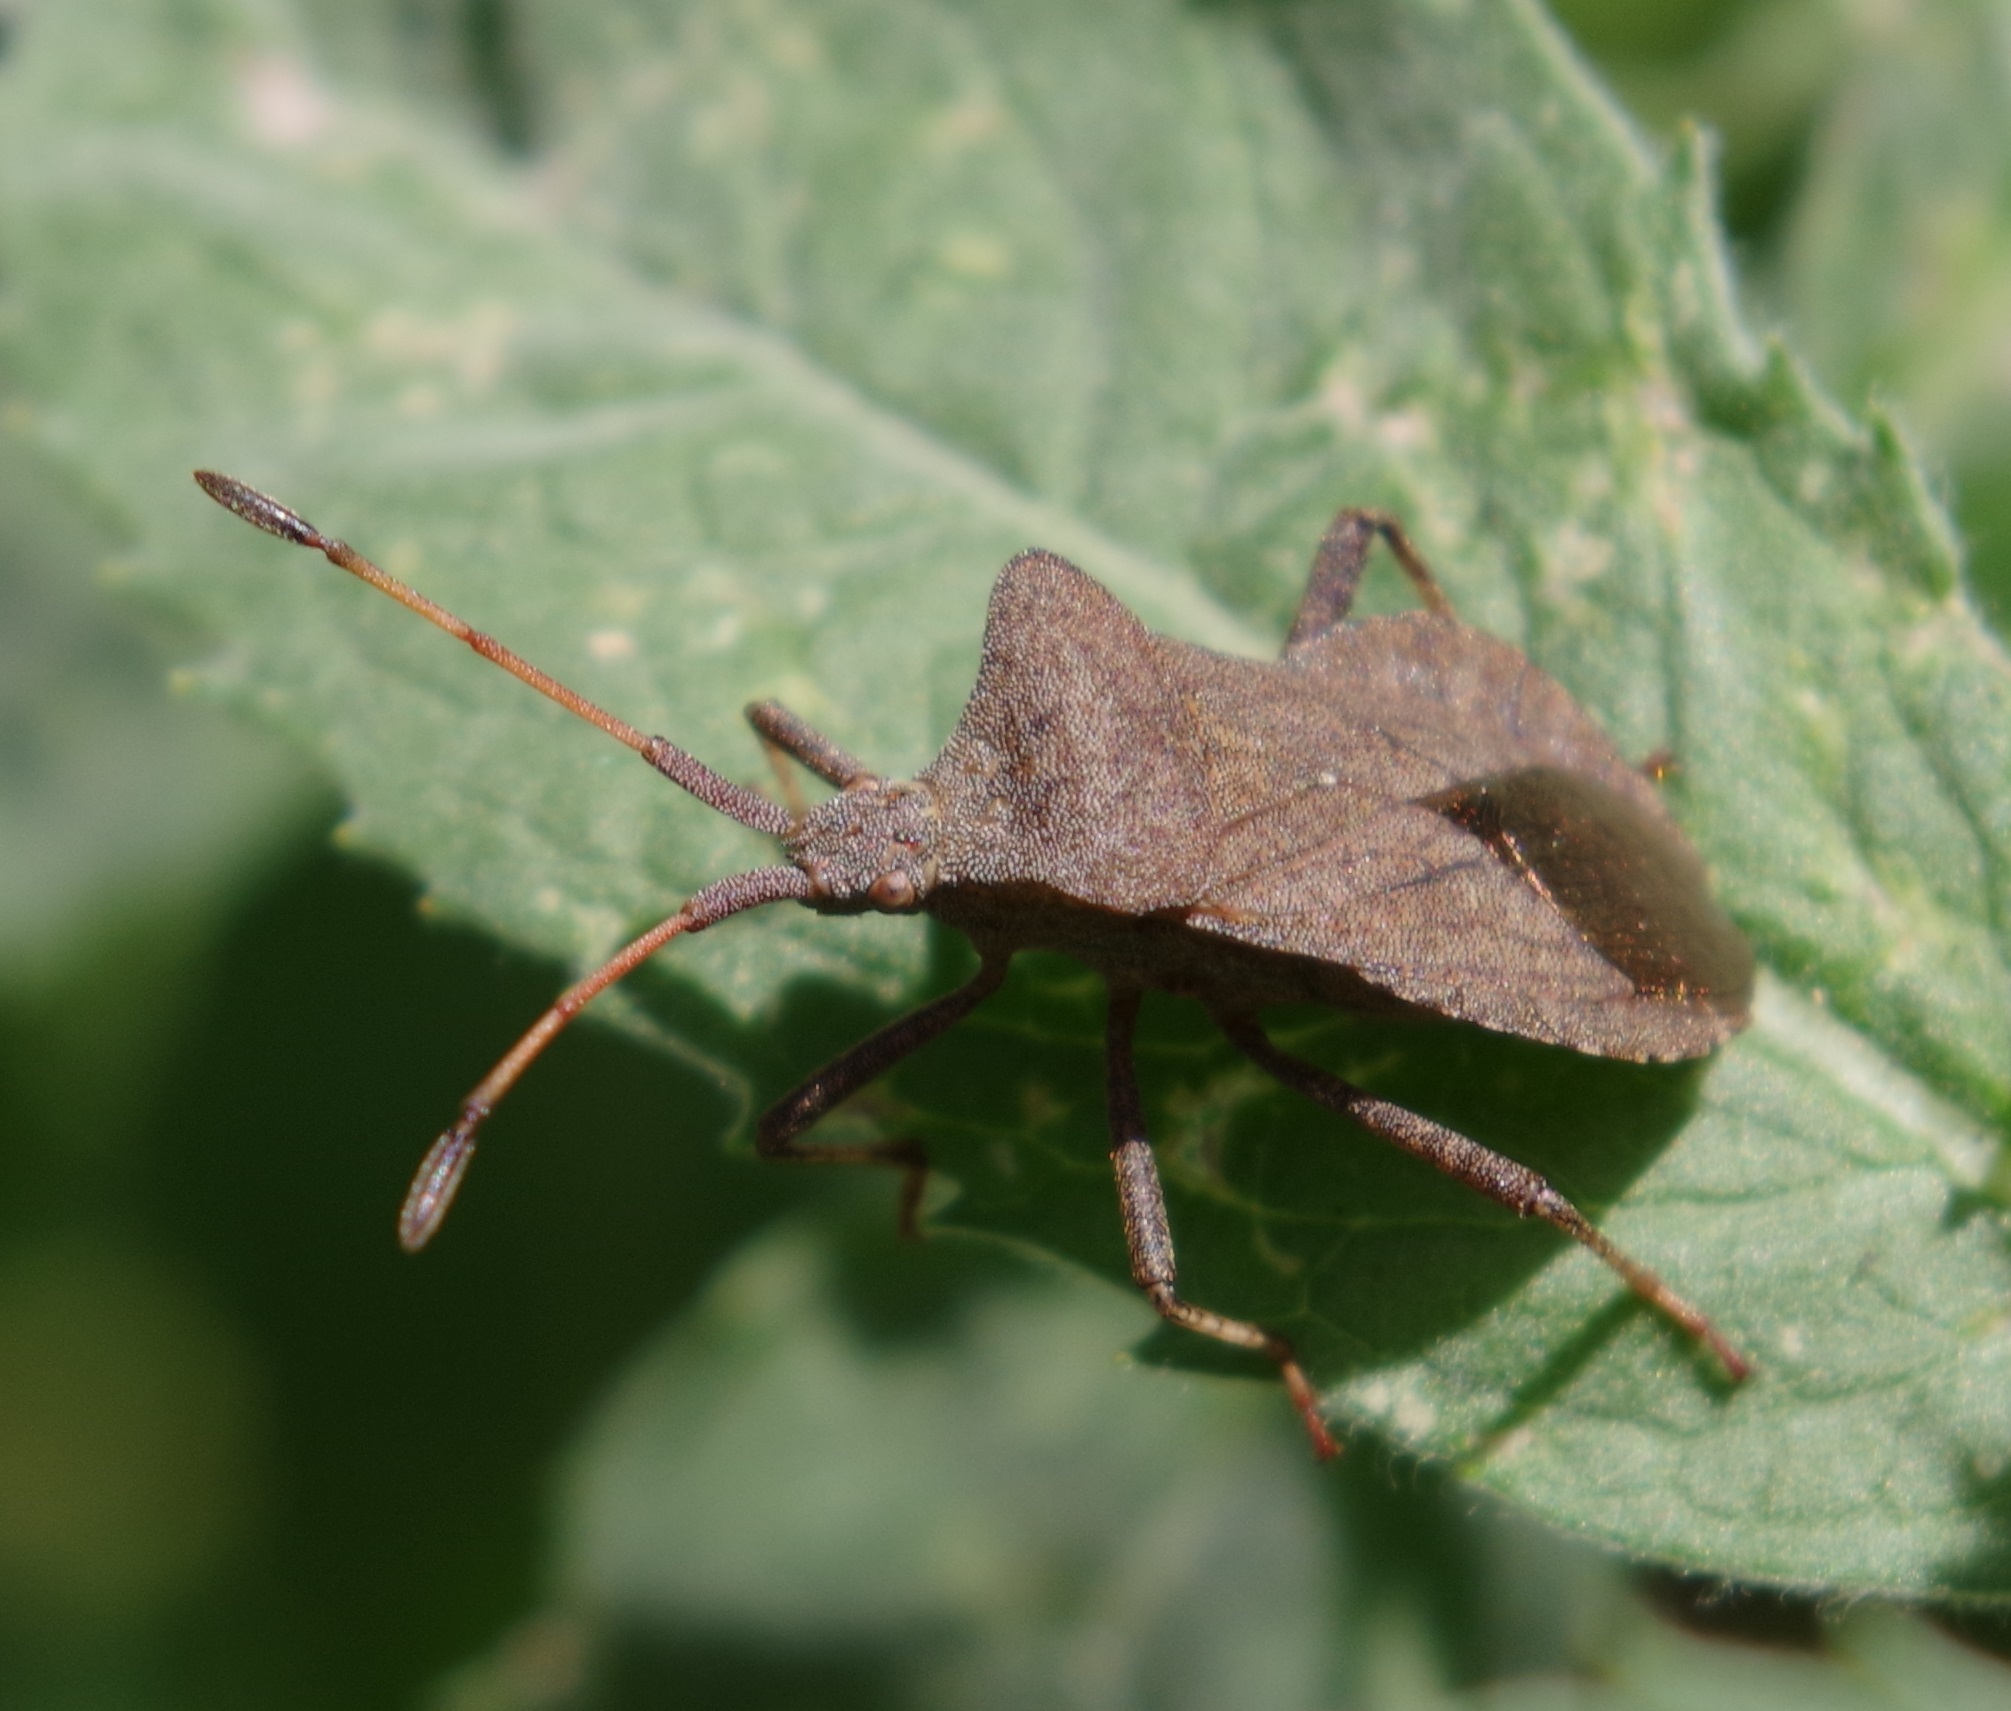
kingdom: Animalia
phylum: Arthropoda
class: Insecta
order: Hemiptera
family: Coreidae
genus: Coreus
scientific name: Coreus marginatus
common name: Dock bug
